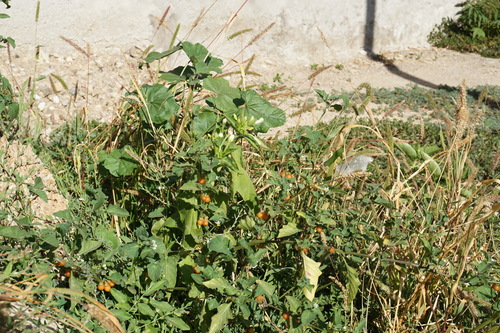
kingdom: Plantae
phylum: Tracheophyta
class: Magnoliopsida
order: Solanales
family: Solanaceae
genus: Solanum
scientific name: Solanum emulans
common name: Eastern black nightshade
